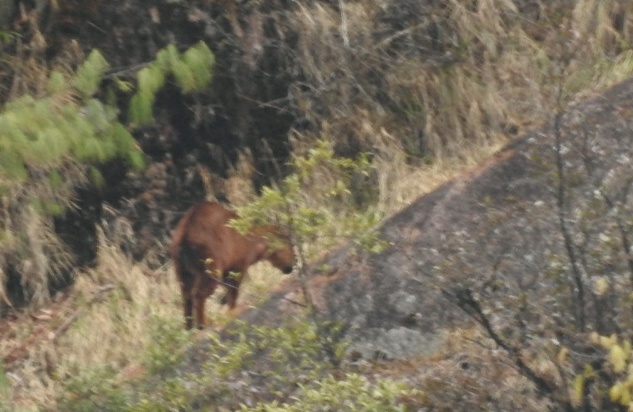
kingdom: Animalia
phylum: Chordata
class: Mammalia
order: Artiodactyla
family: Bovidae
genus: Naemorhedus
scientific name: Naemorhedus baileyi
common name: Red goral
